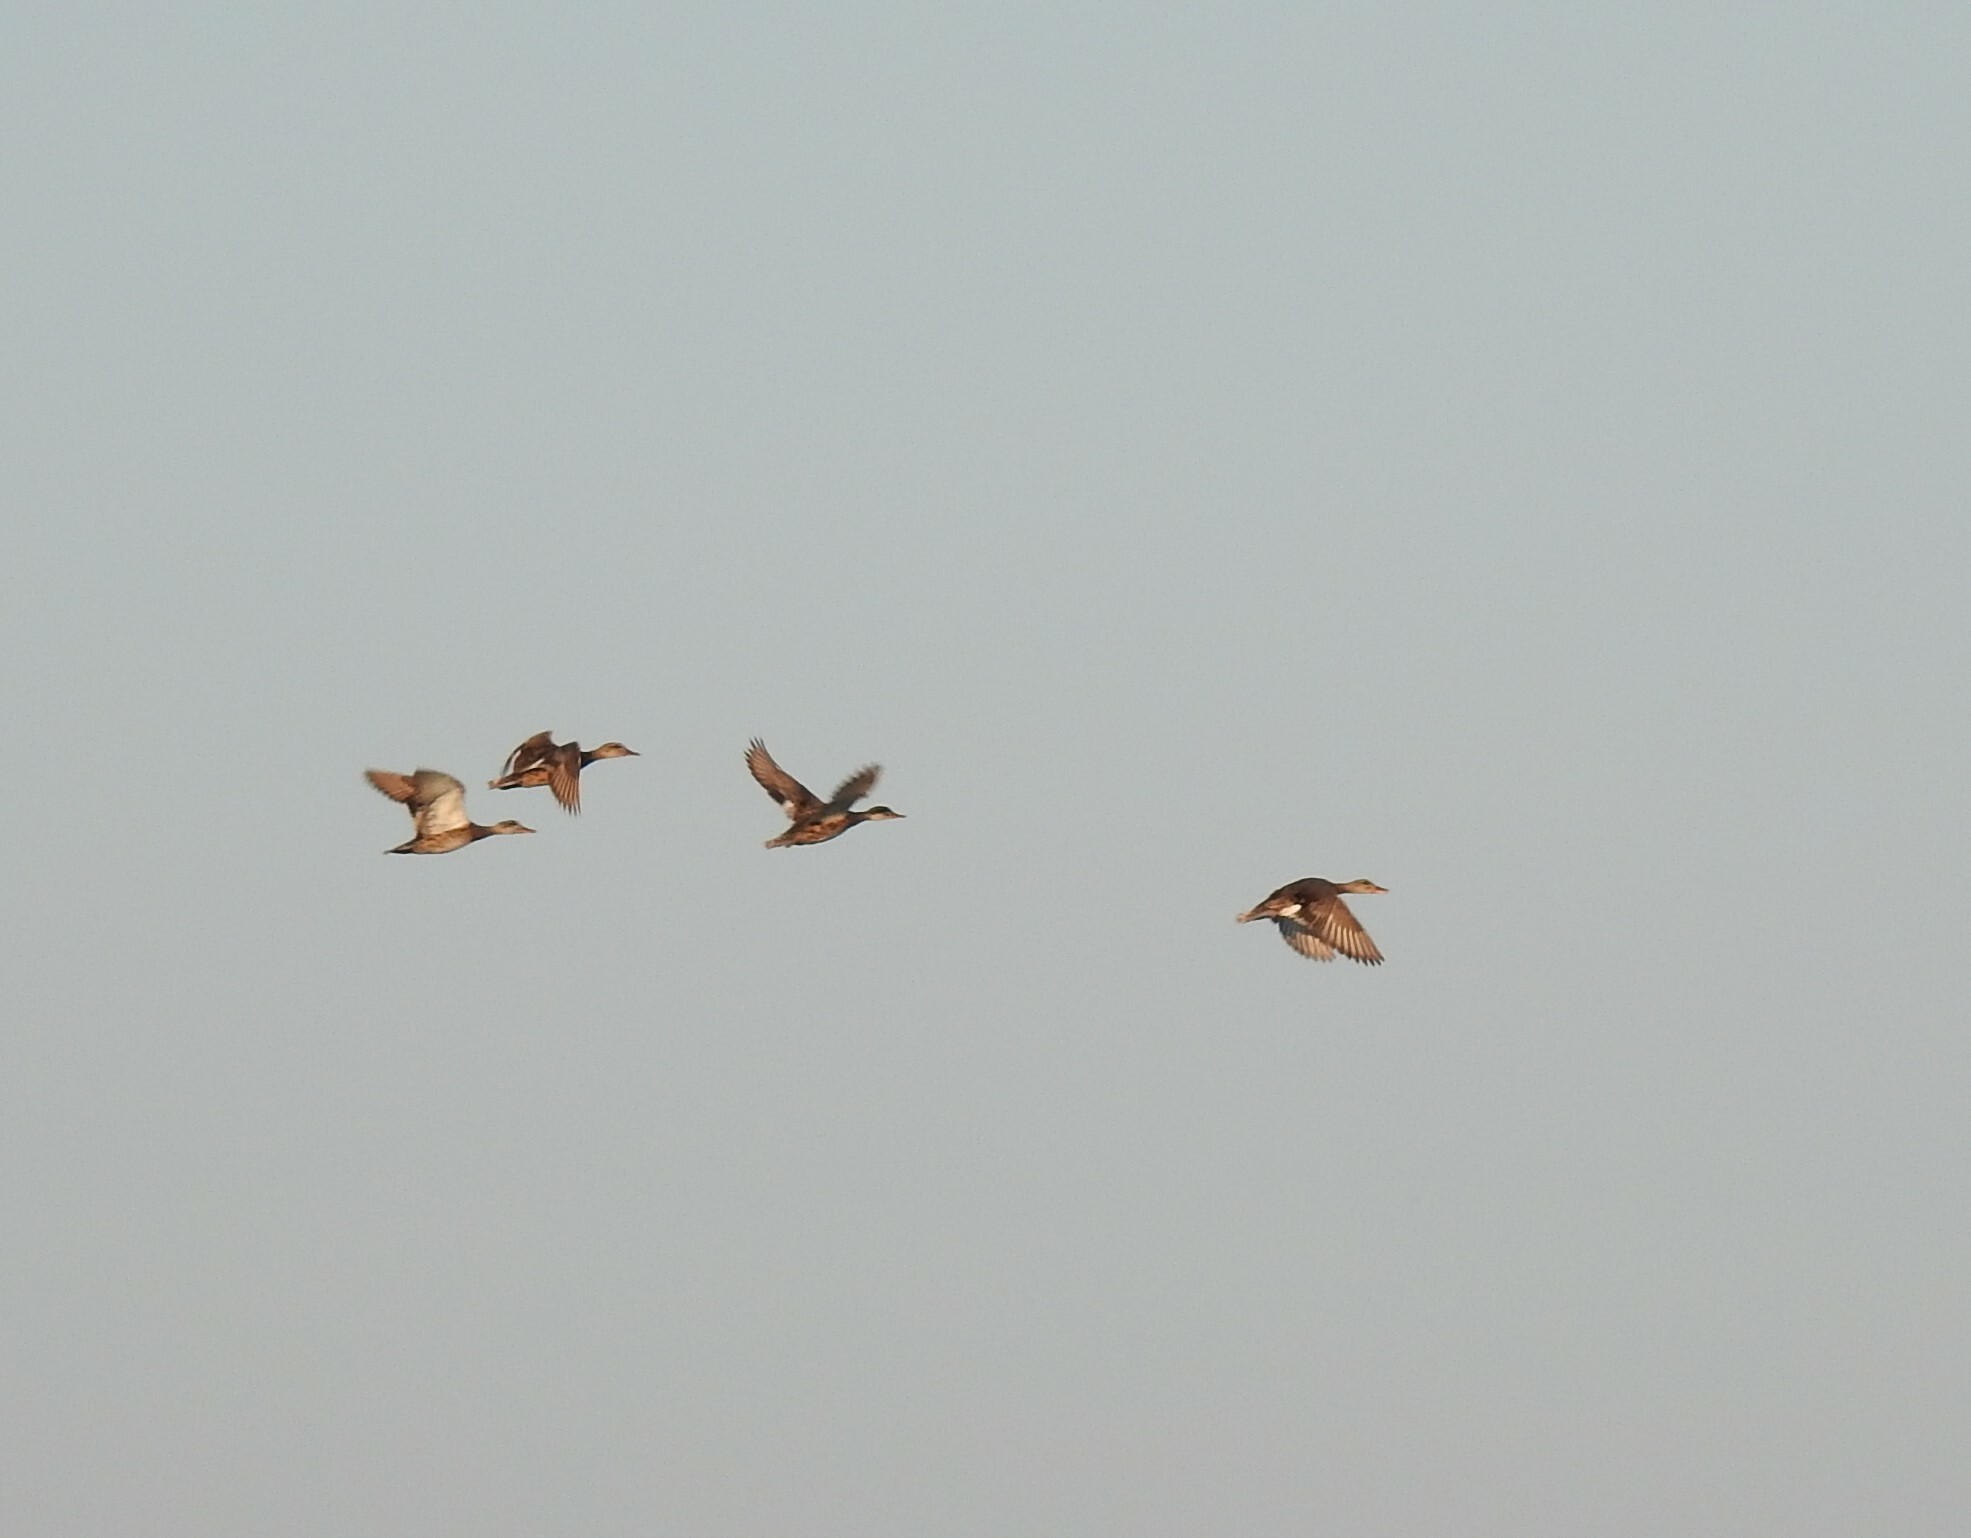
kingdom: Animalia
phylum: Chordata
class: Aves
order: Anseriformes
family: Anatidae
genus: Mareca
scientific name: Mareca strepera
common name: Gadwall
